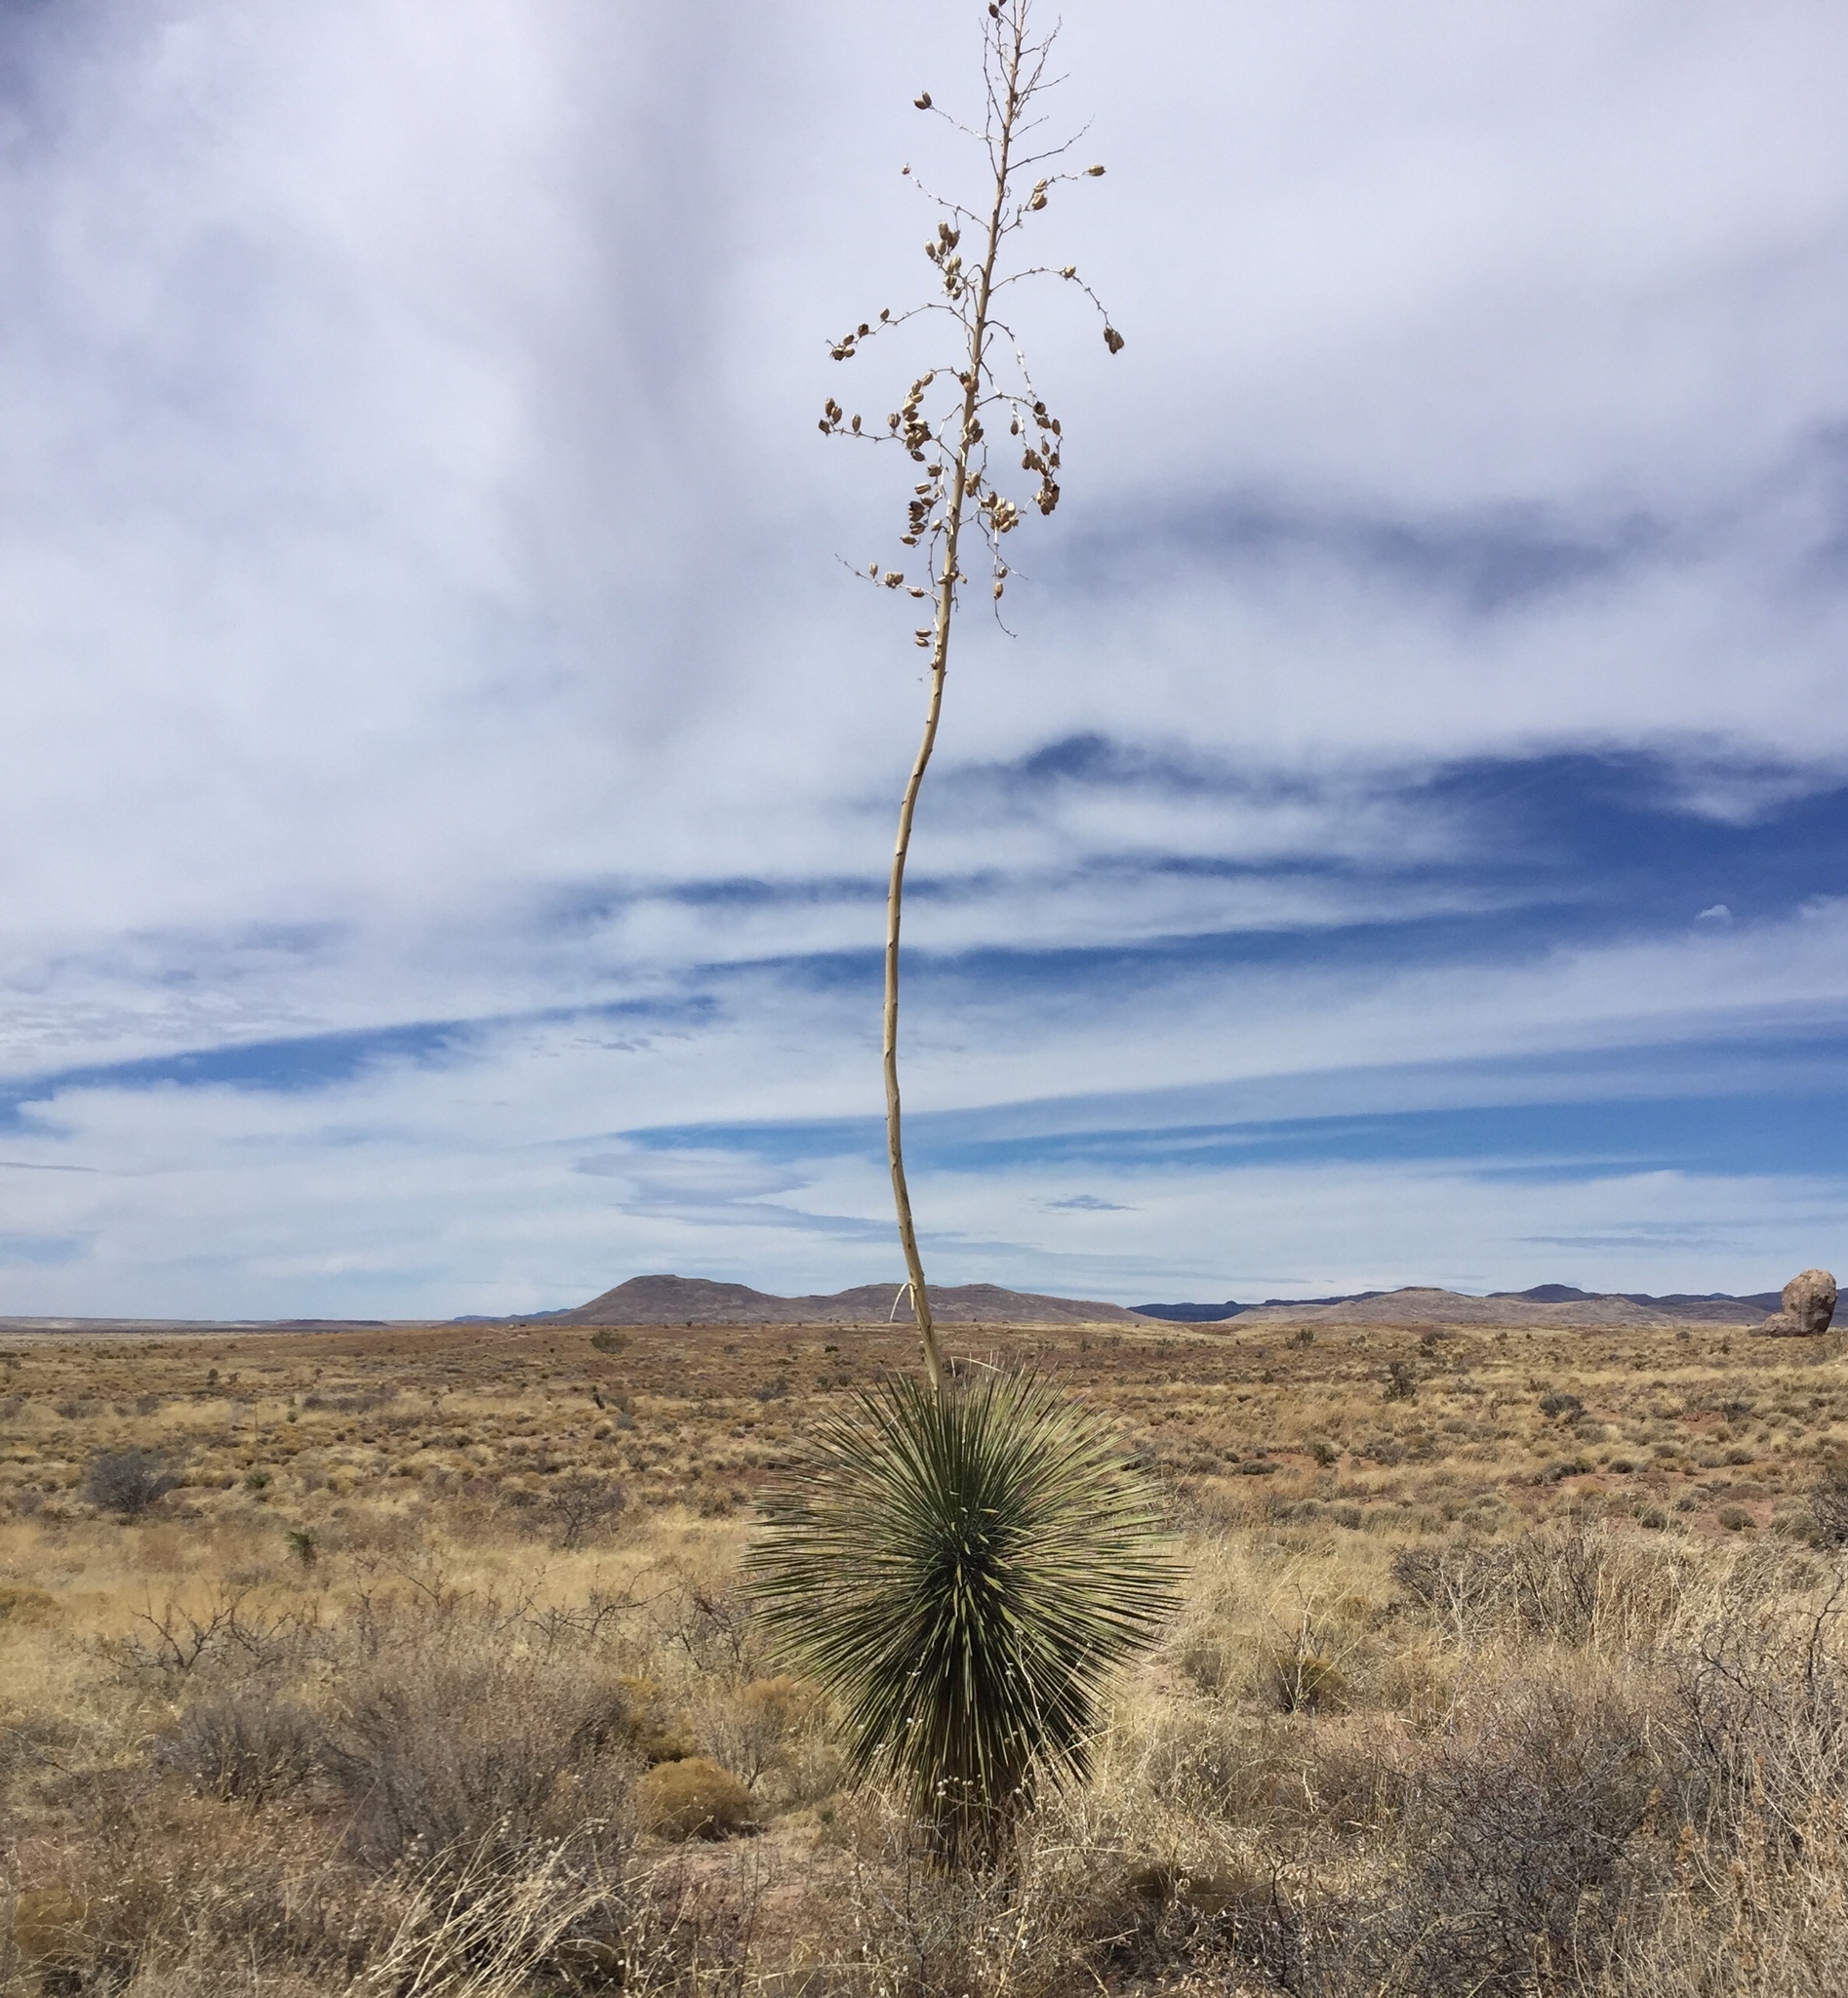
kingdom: Plantae
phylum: Tracheophyta
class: Liliopsida
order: Asparagales
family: Asparagaceae
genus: Yucca
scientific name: Yucca elata
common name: Palmella
